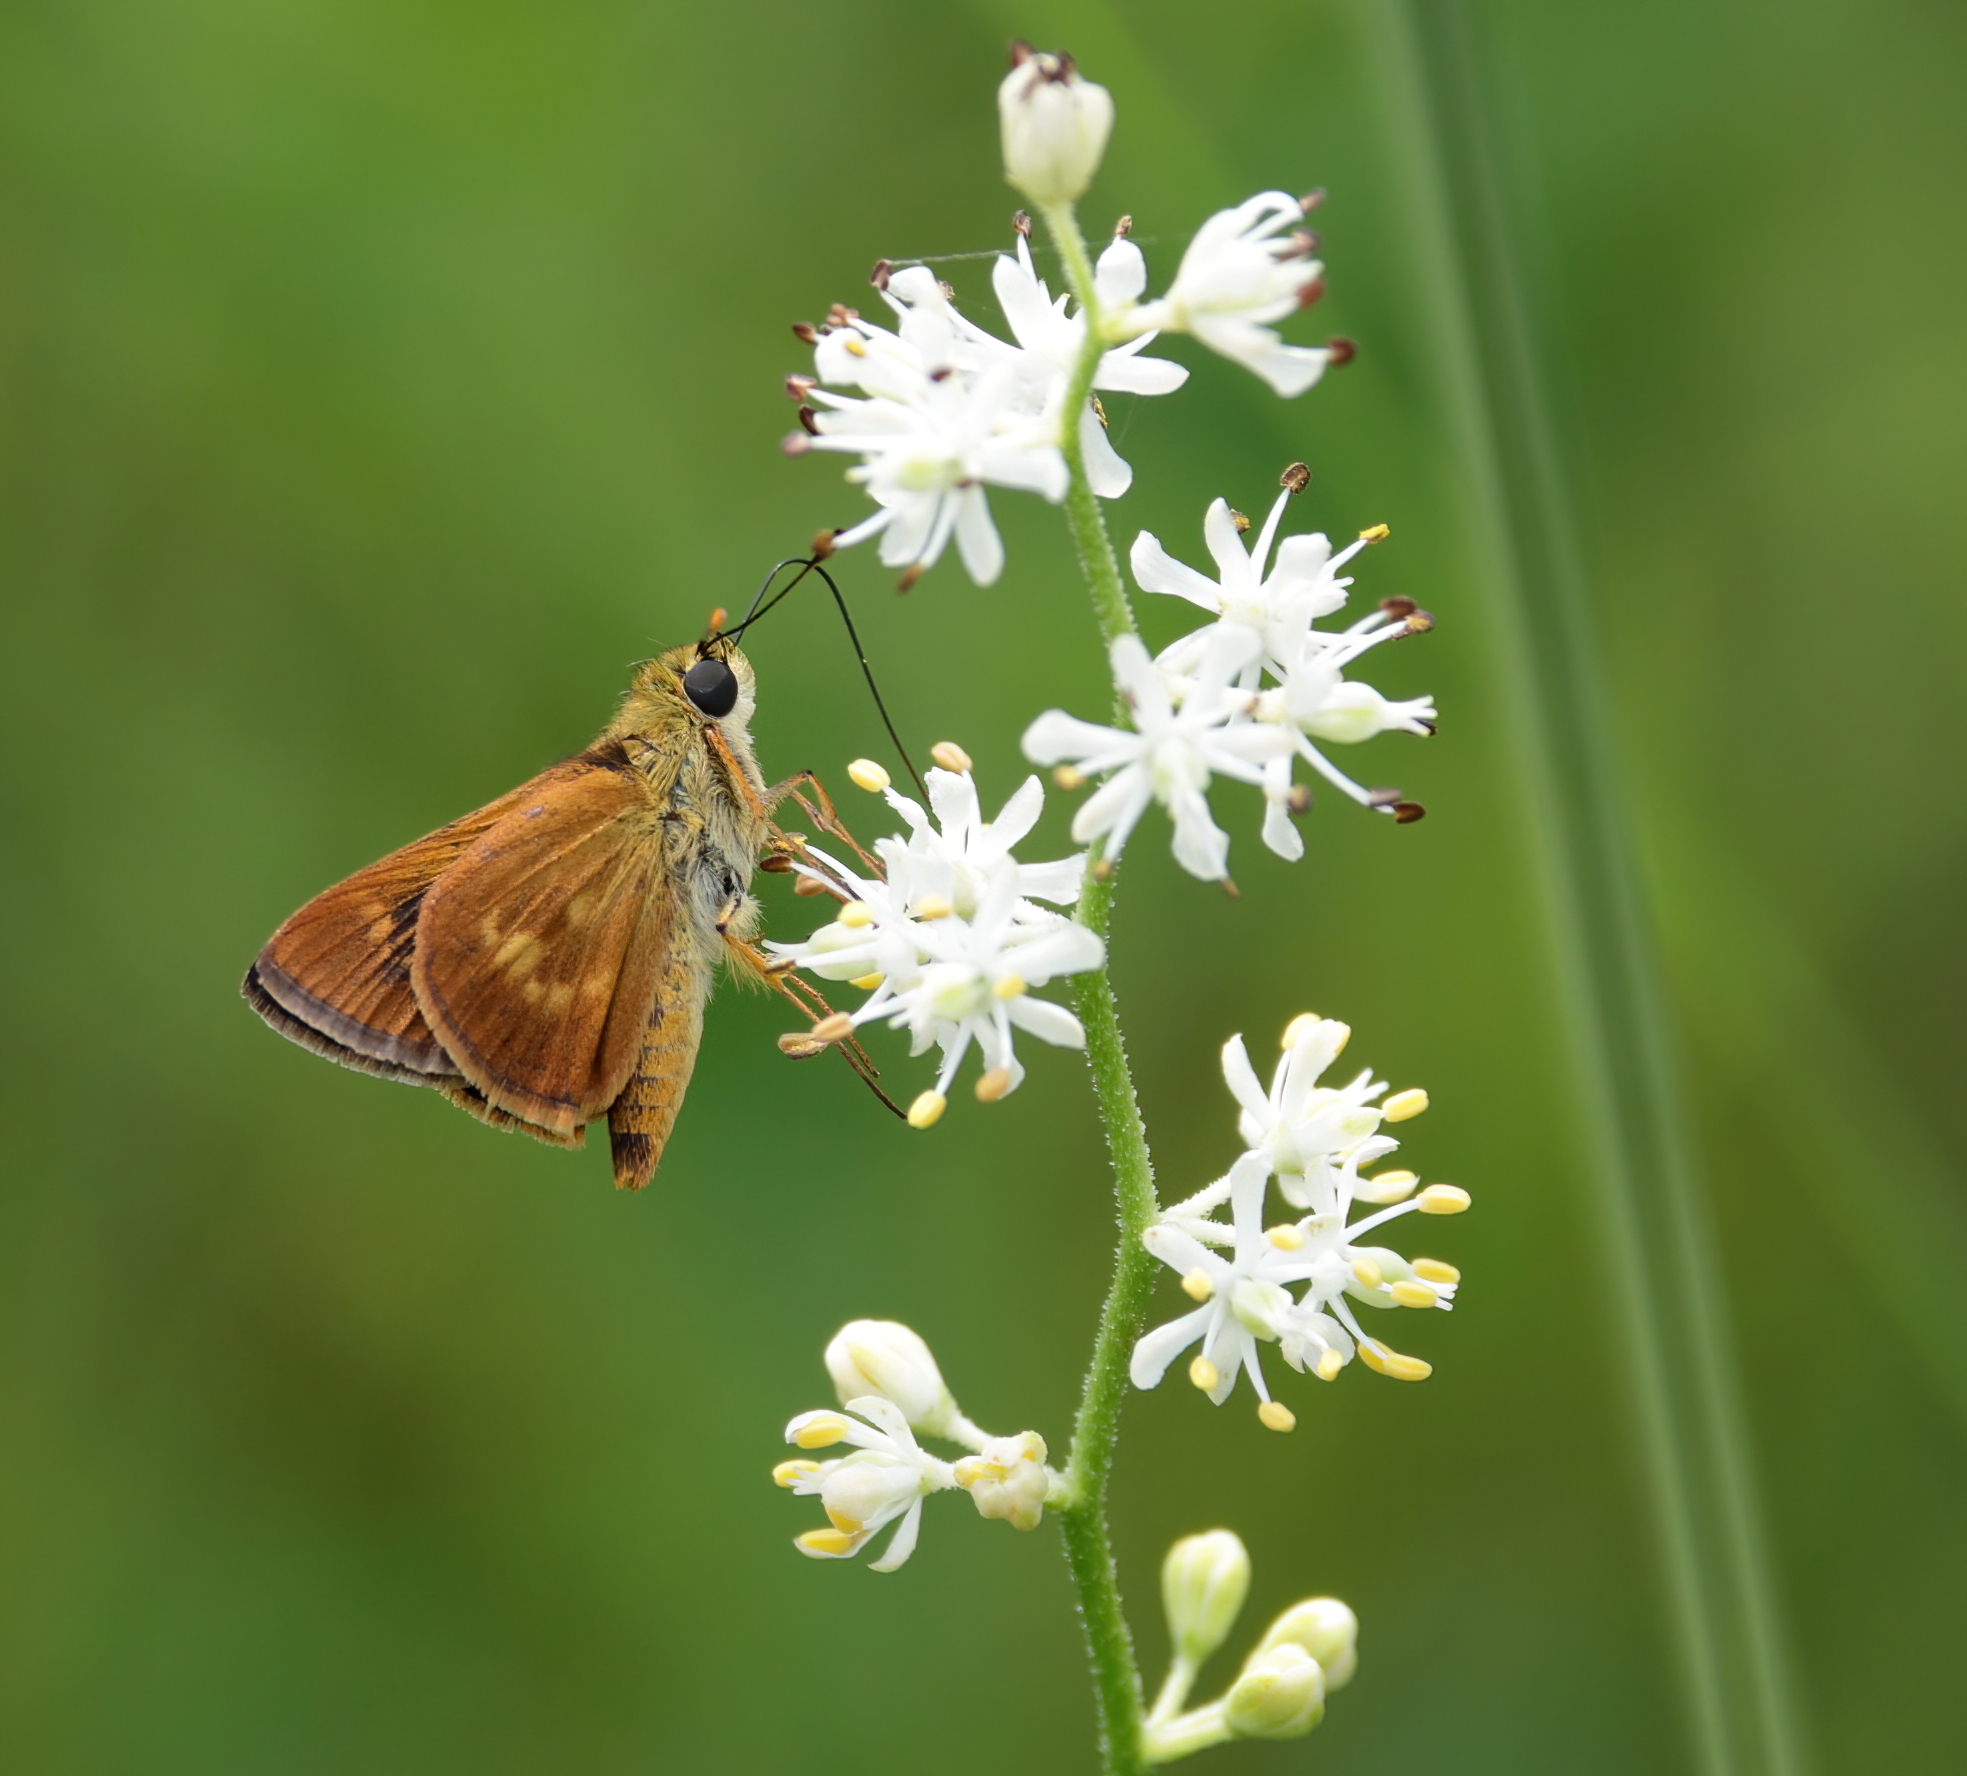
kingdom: Animalia
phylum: Arthropoda
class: Insecta
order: Lepidoptera
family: Hesperiidae
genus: Polites
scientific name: Polites otho
